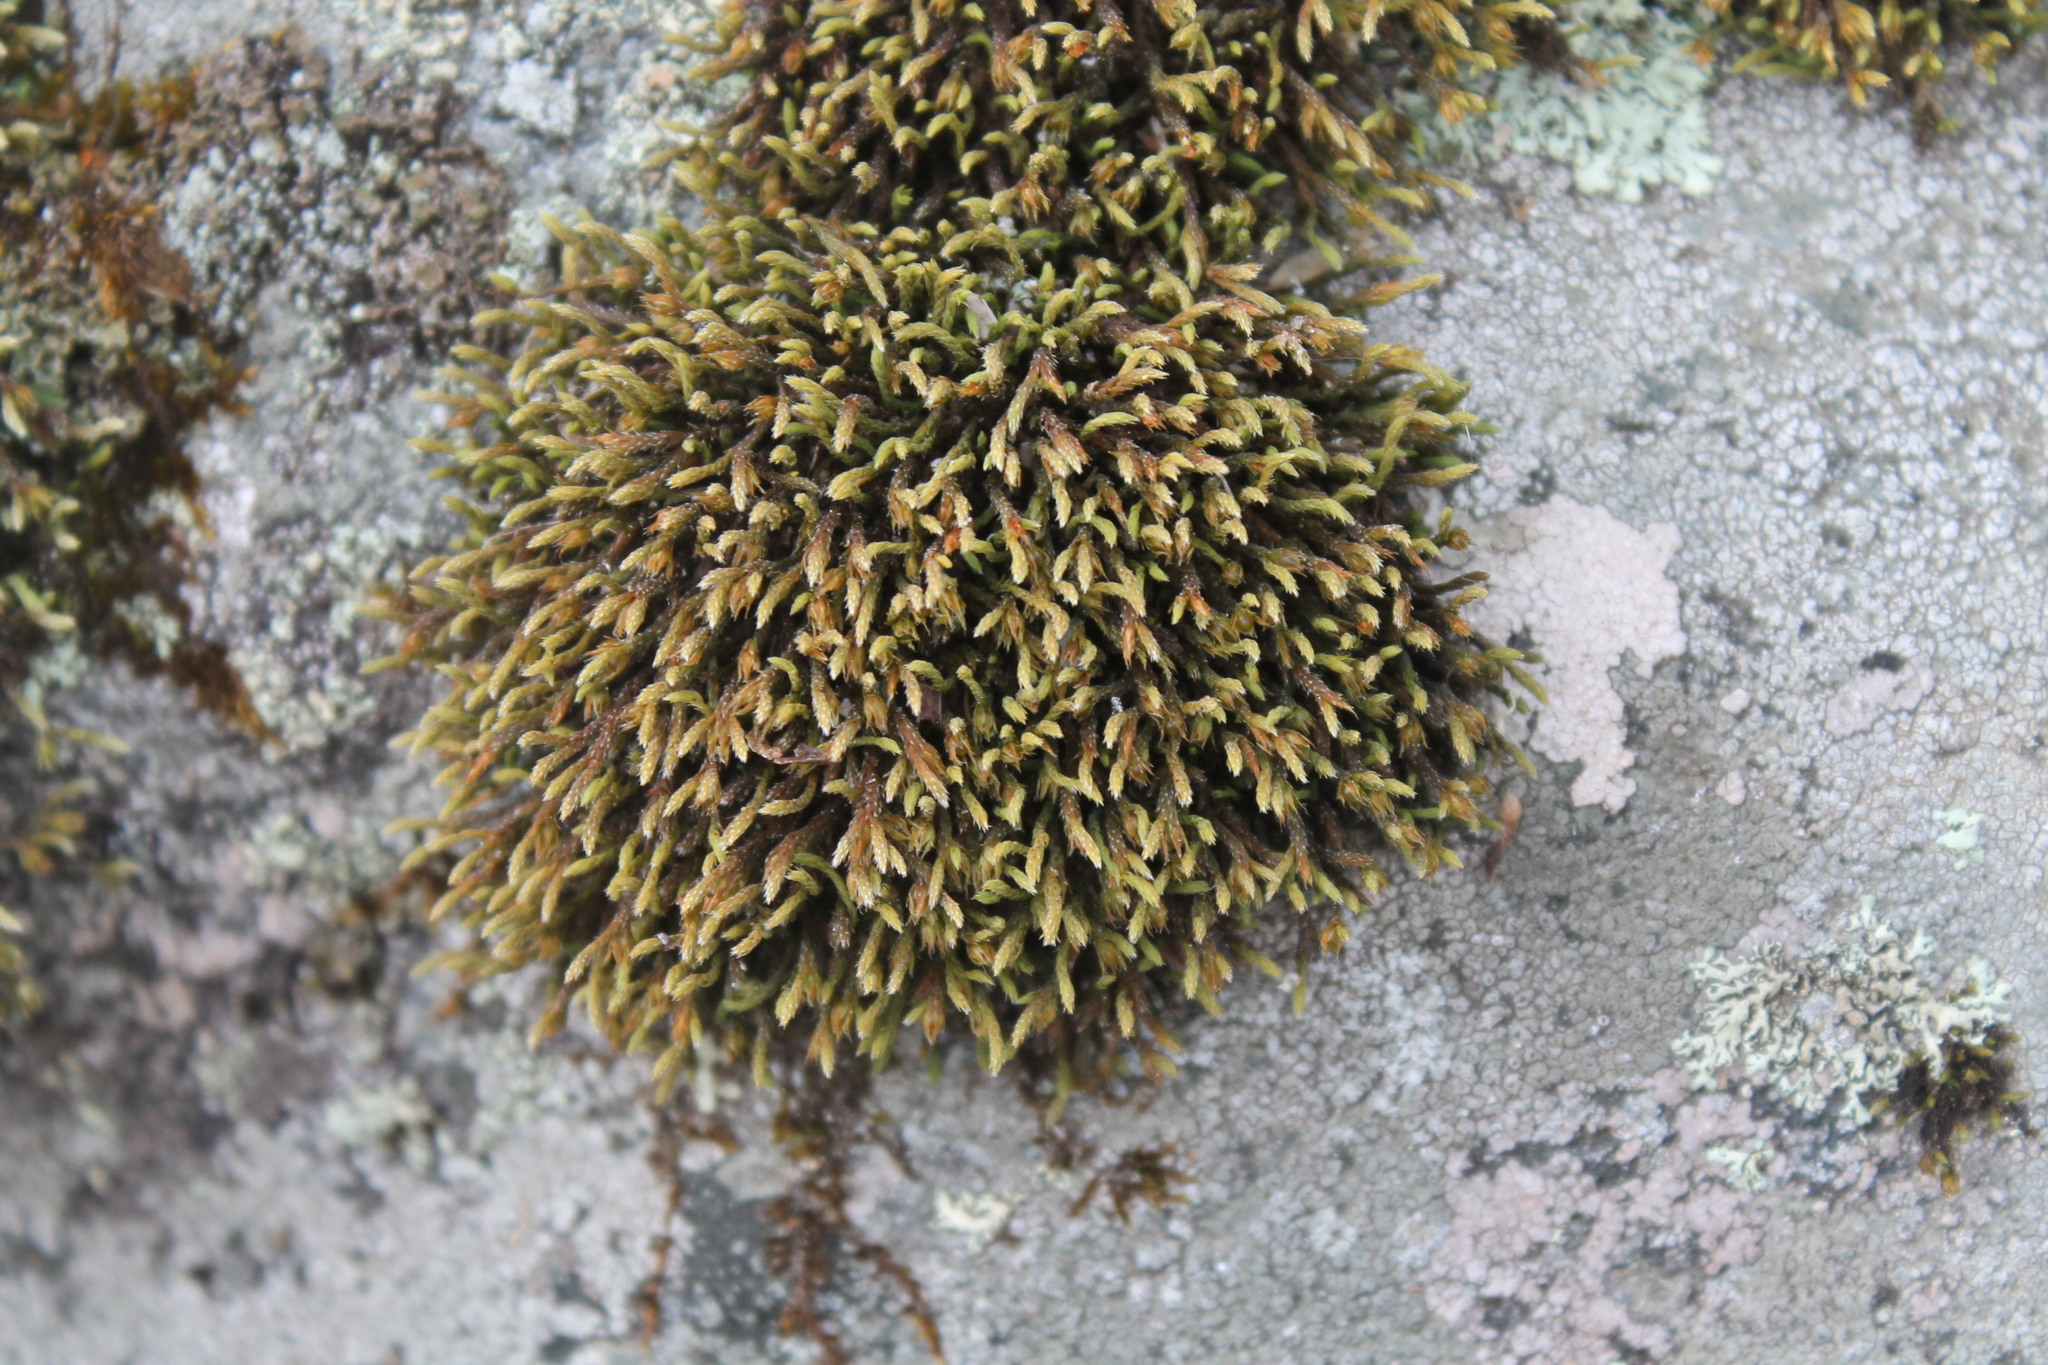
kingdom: Plantae
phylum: Bryophyta
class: Bryopsida
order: Hedwigiales
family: Hedwigiaceae
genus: Hedwigia
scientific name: Hedwigia ciliata
